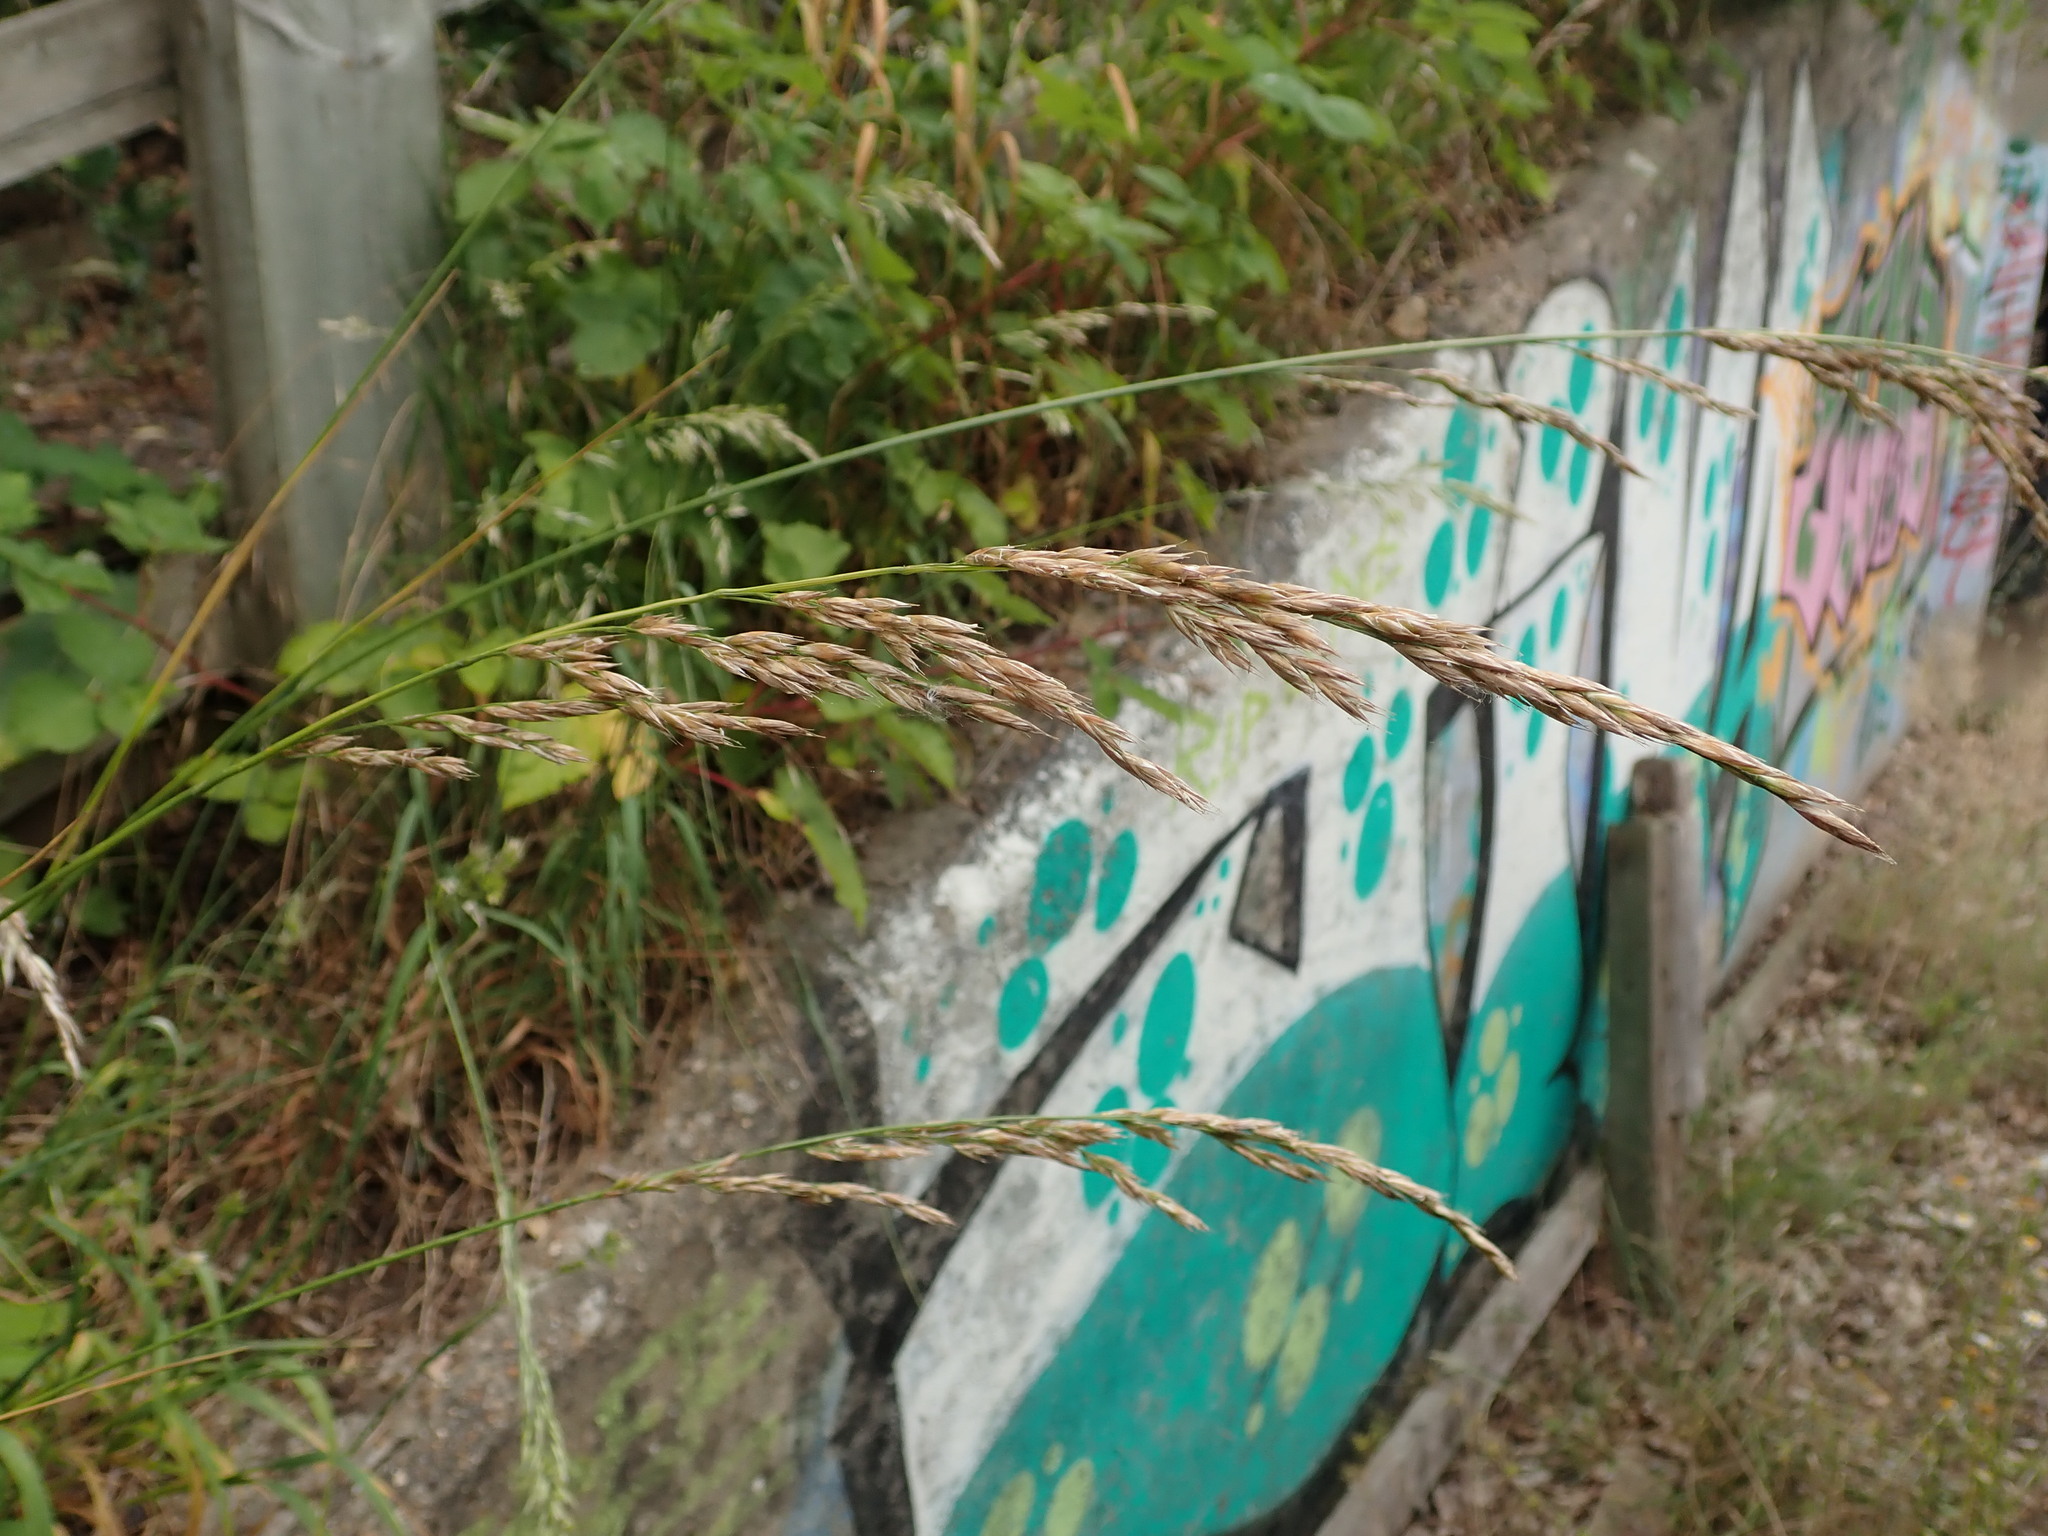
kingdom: Plantae
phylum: Tracheophyta
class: Liliopsida
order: Poales
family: Poaceae
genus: Lolium
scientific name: Lolium arundinaceum
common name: Reed fescue
